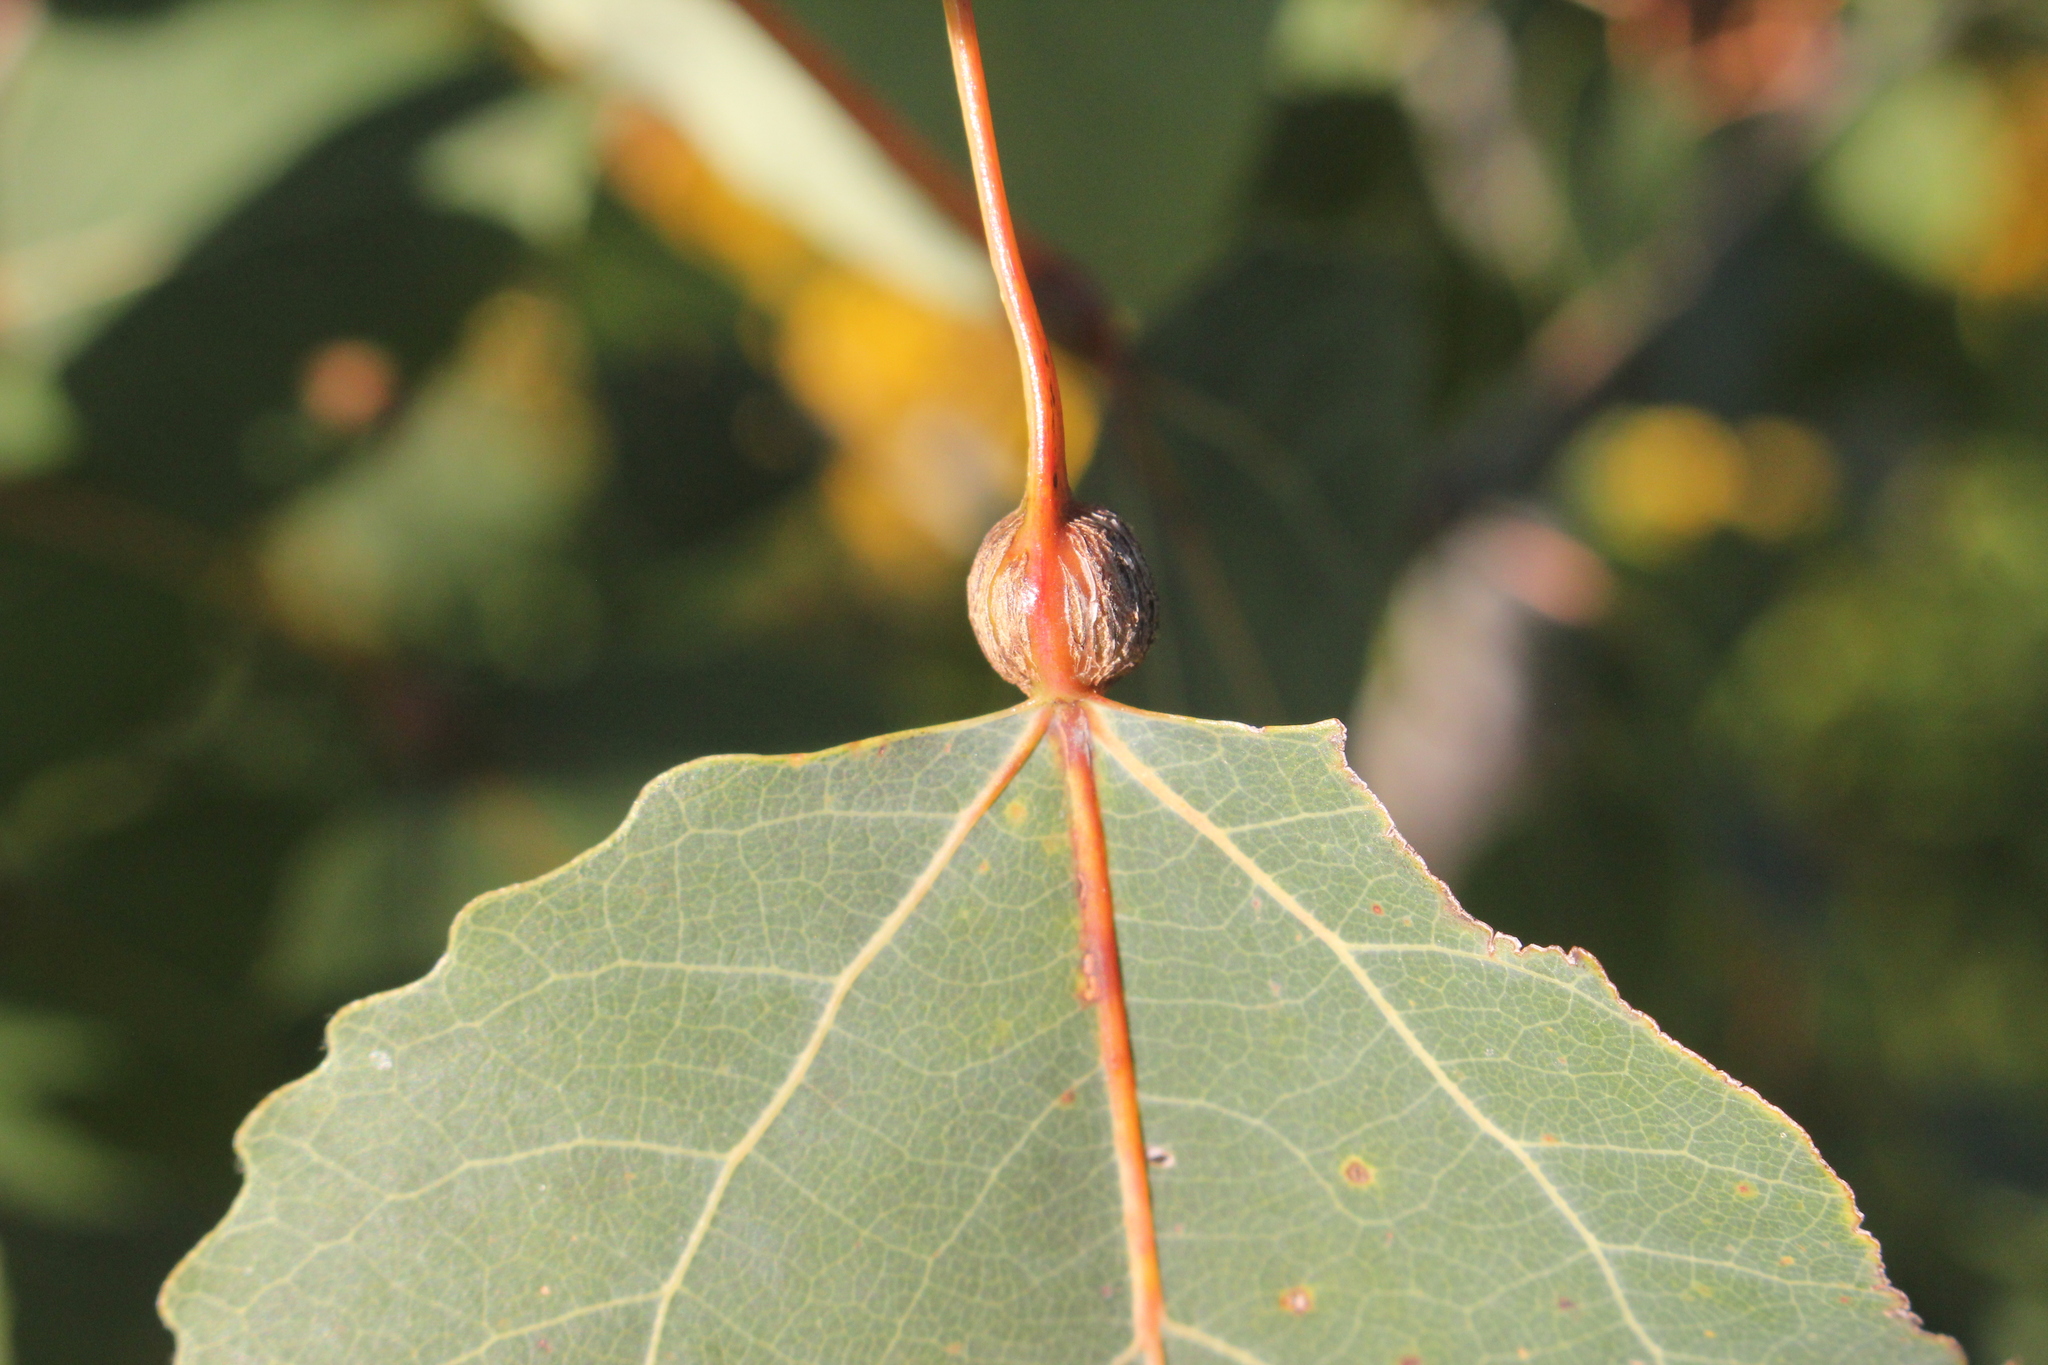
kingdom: Animalia
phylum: Arthropoda
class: Insecta
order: Lepidoptera
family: Nepticulidae
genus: Ectoedemia
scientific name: Ectoedemia populella
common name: Aspen petiole gall moth
